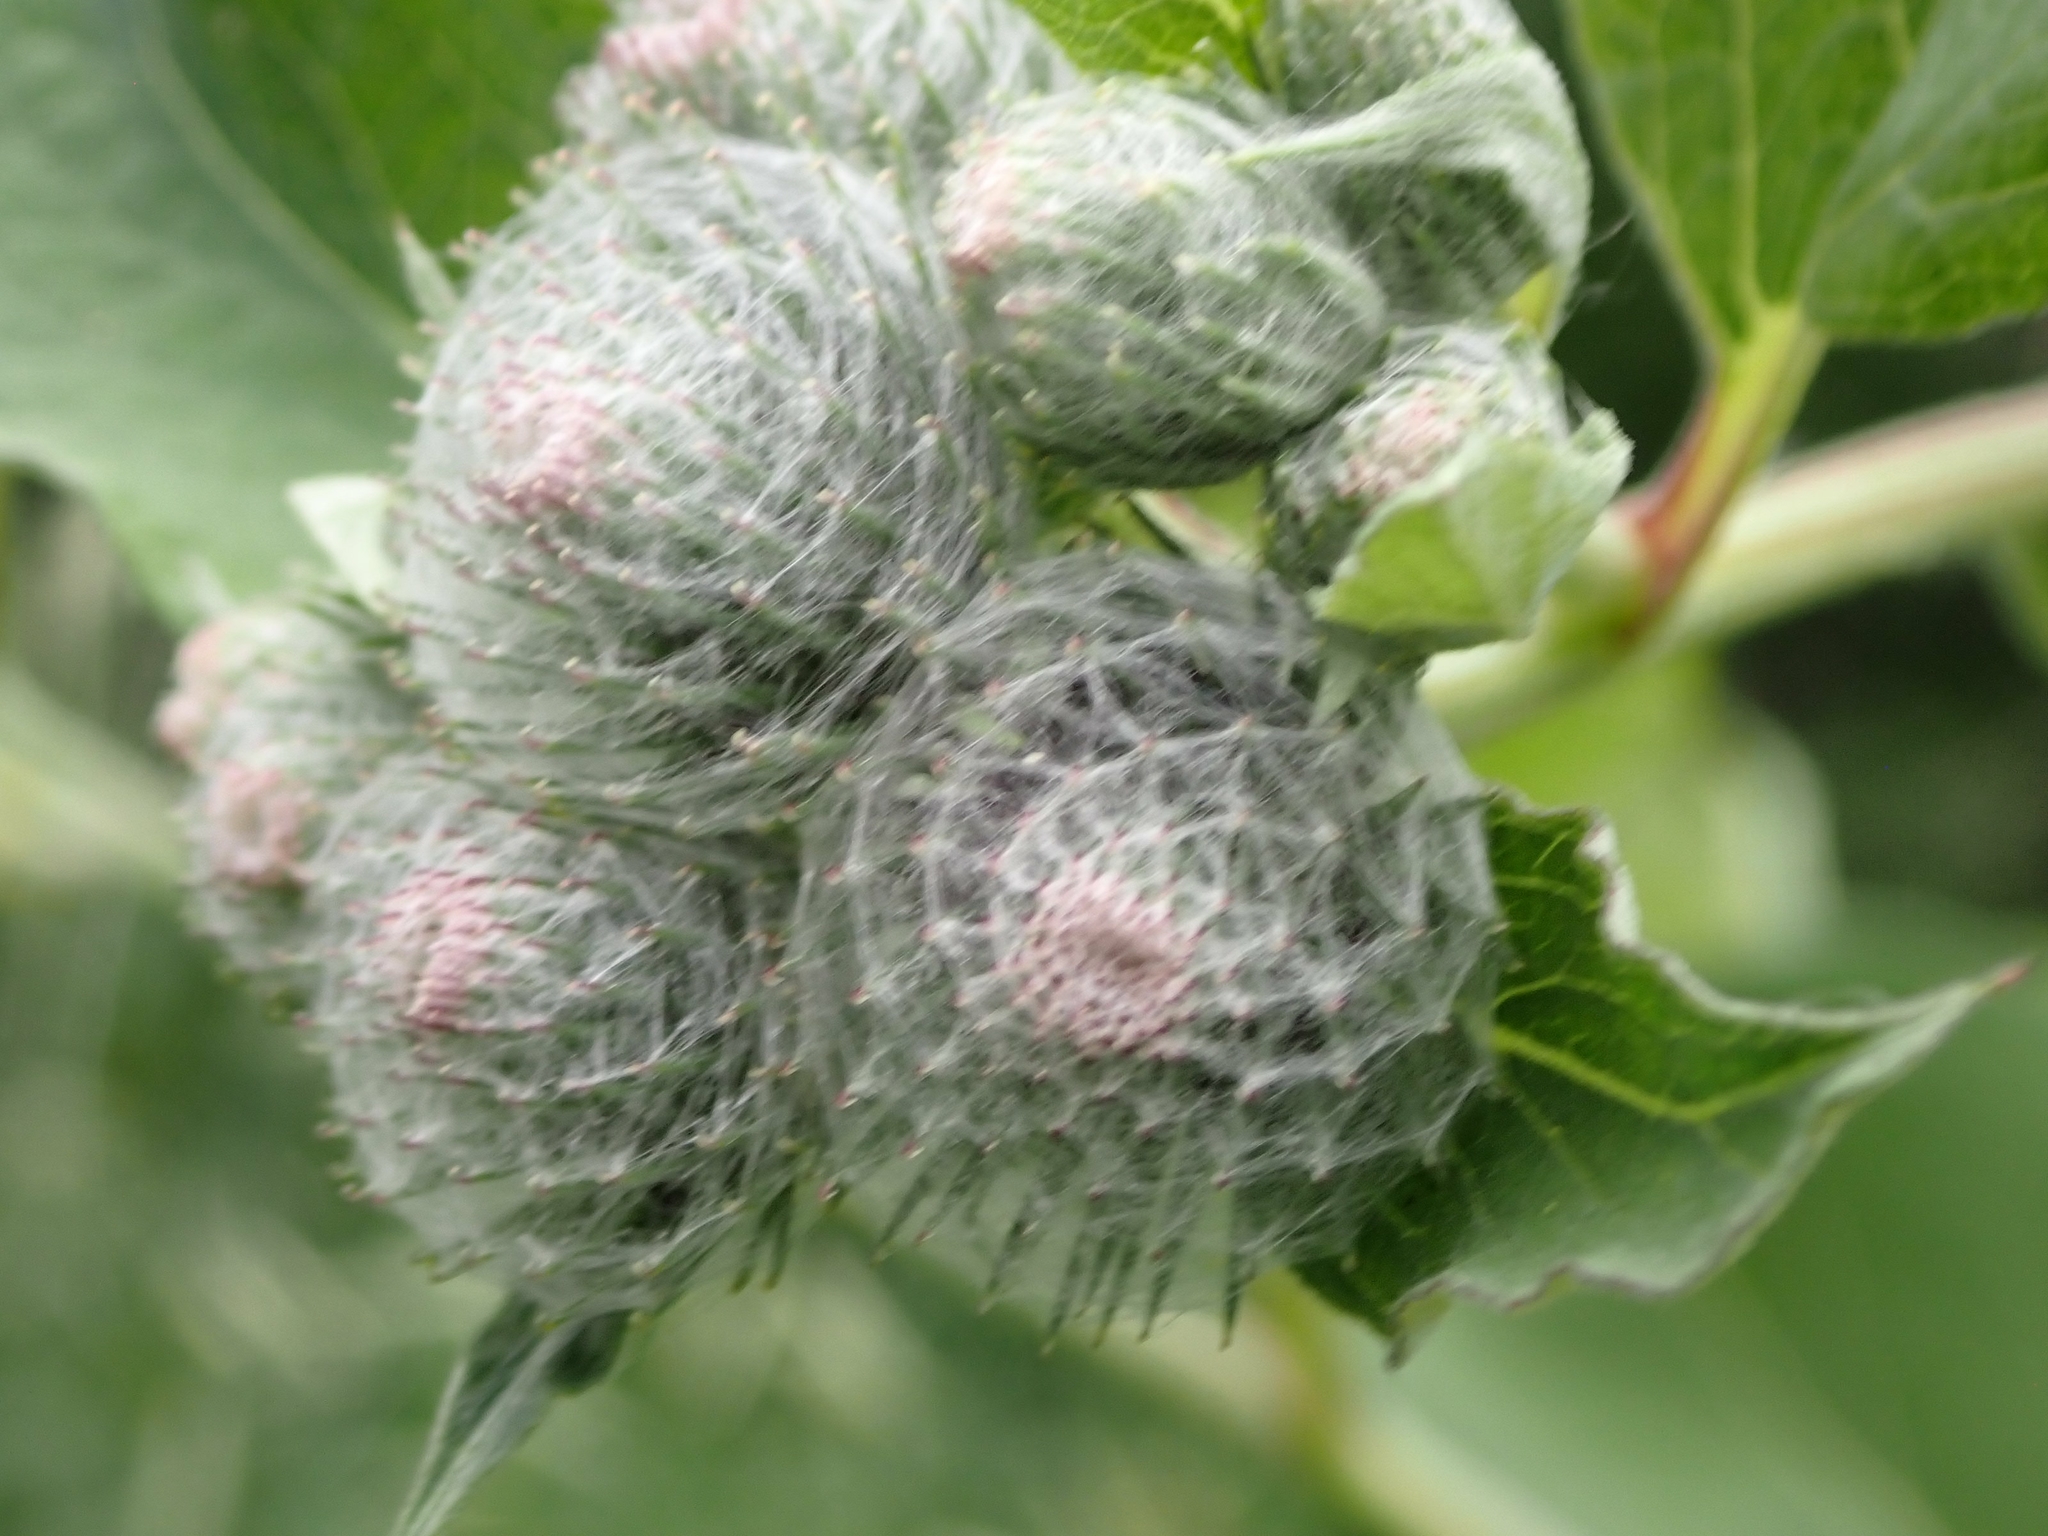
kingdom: Plantae
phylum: Tracheophyta
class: Magnoliopsida
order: Asterales
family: Asteraceae
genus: Arctium
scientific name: Arctium tomentosum
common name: Woolly burdock
